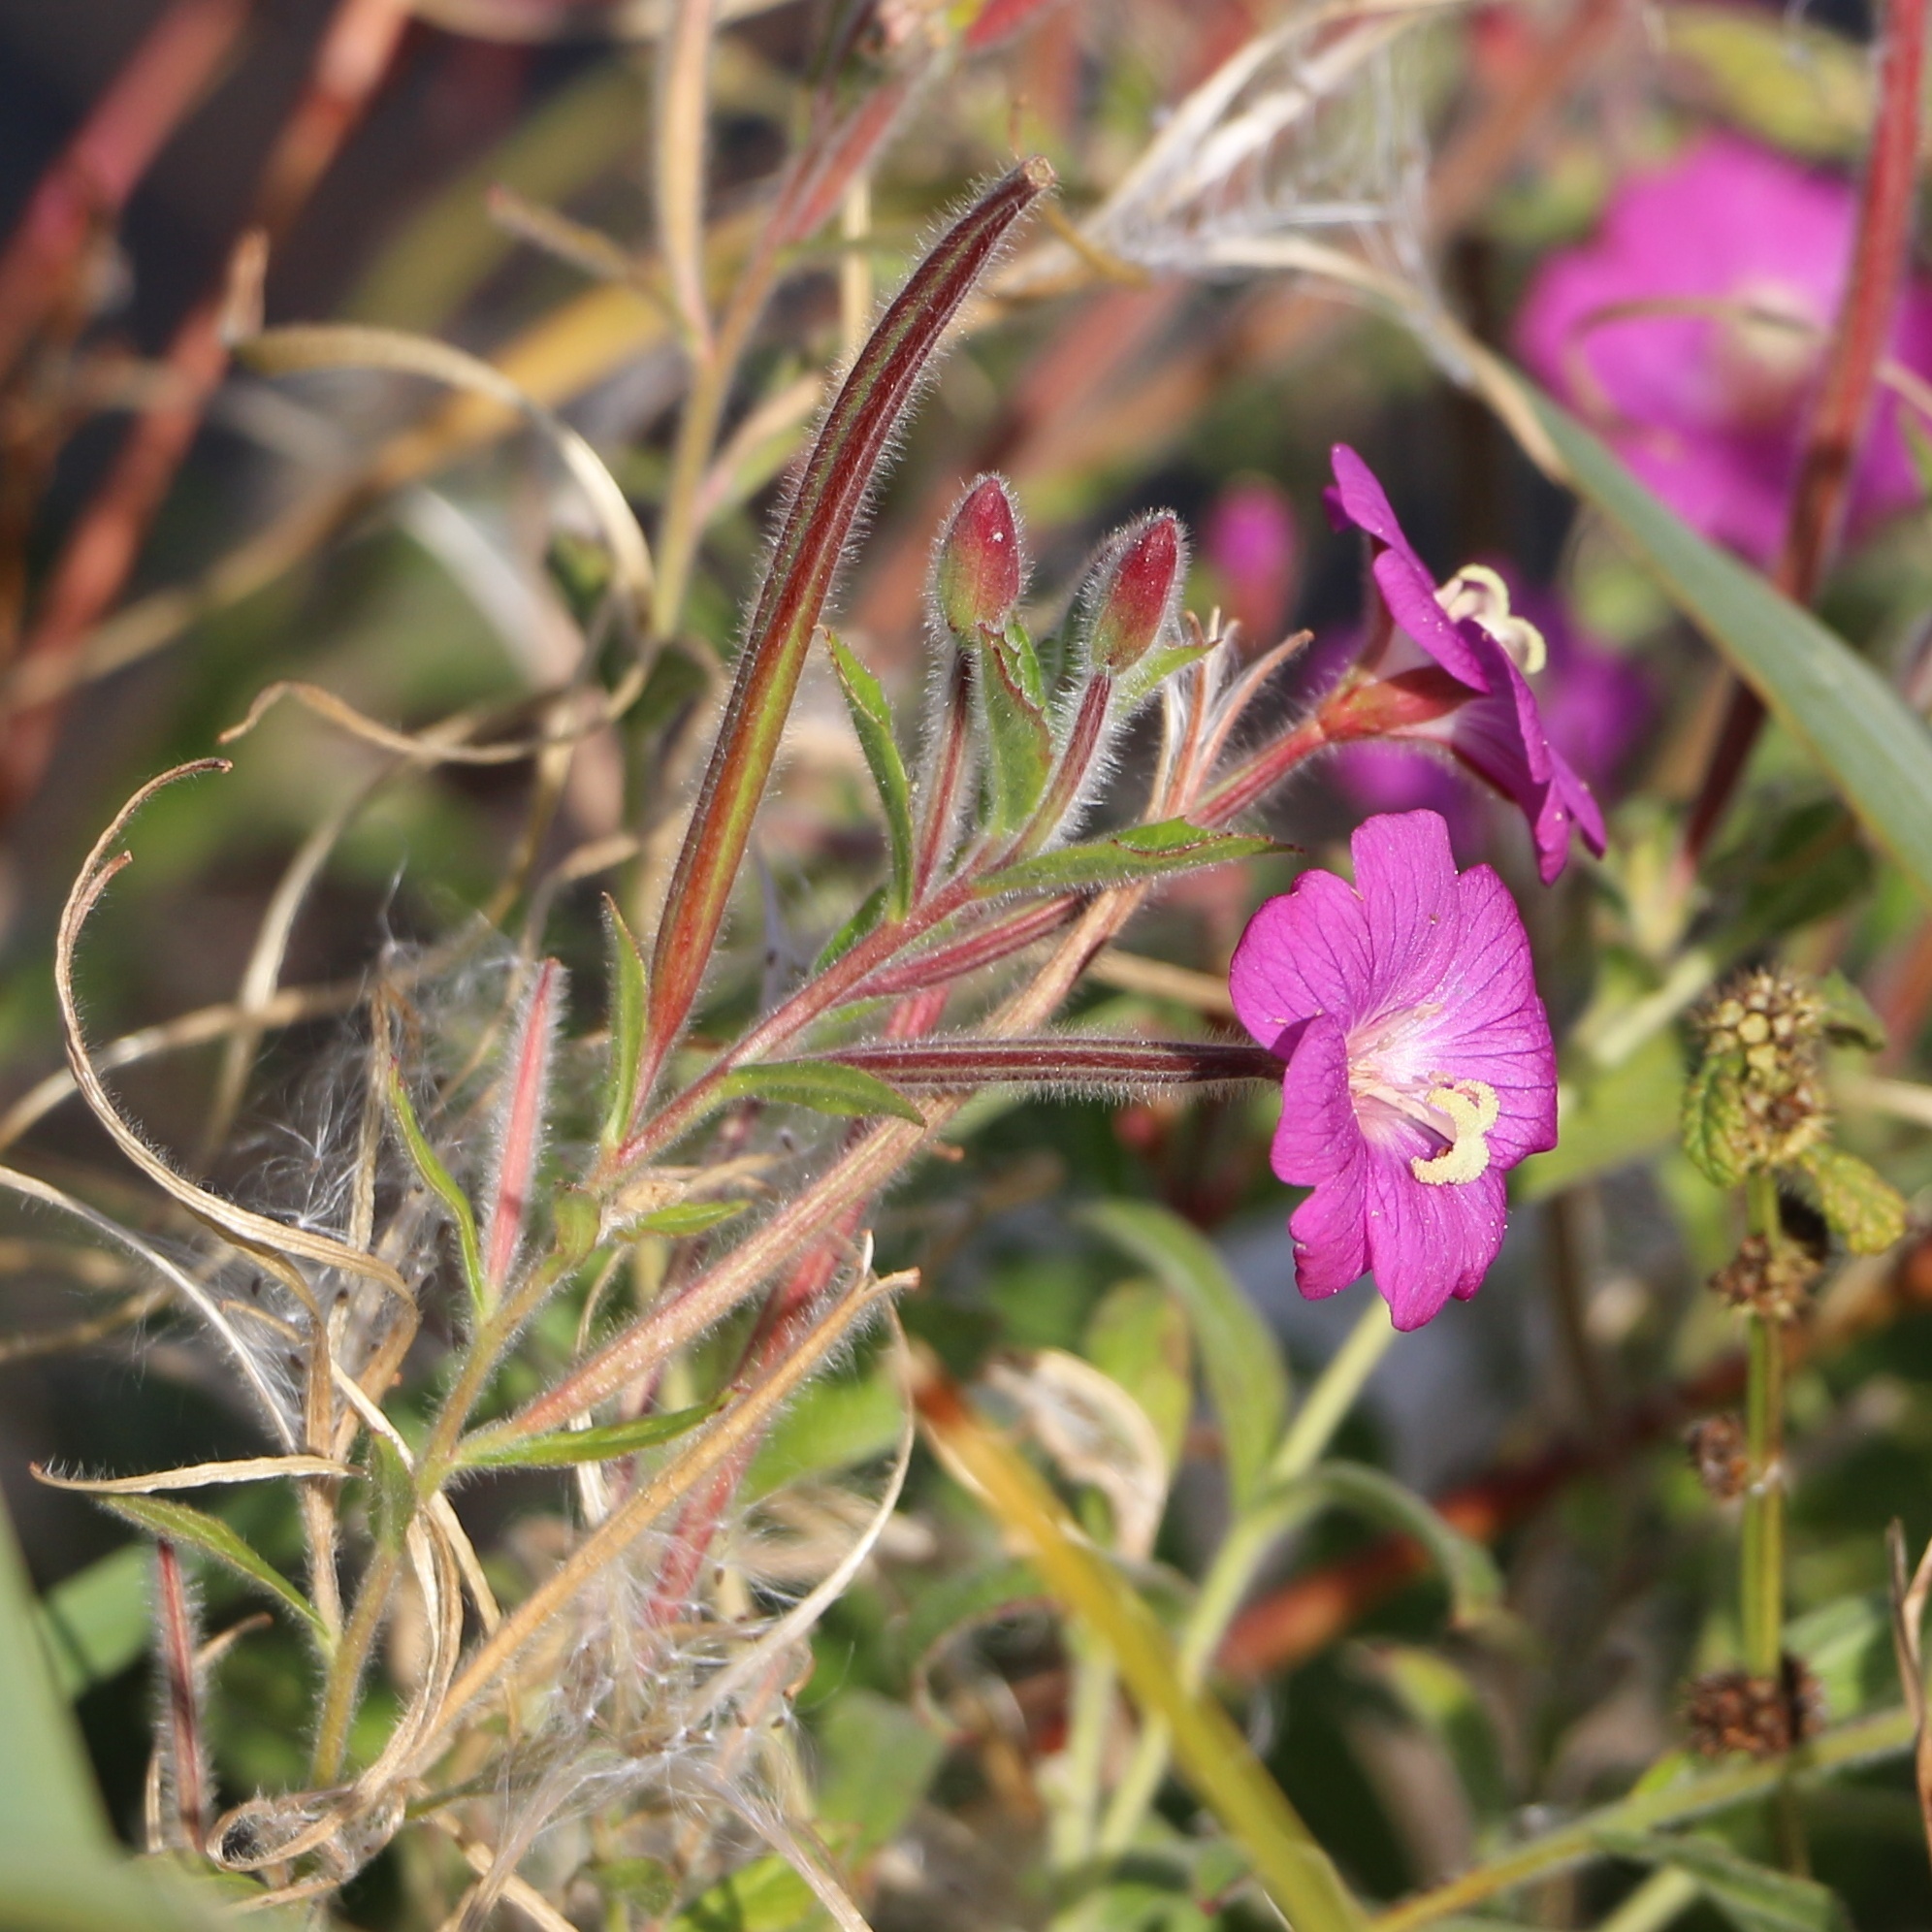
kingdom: Plantae
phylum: Tracheophyta
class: Magnoliopsida
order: Myrtales
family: Onagraceae
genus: Epilobium
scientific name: Epilobium hirsutum
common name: Great willowherb
